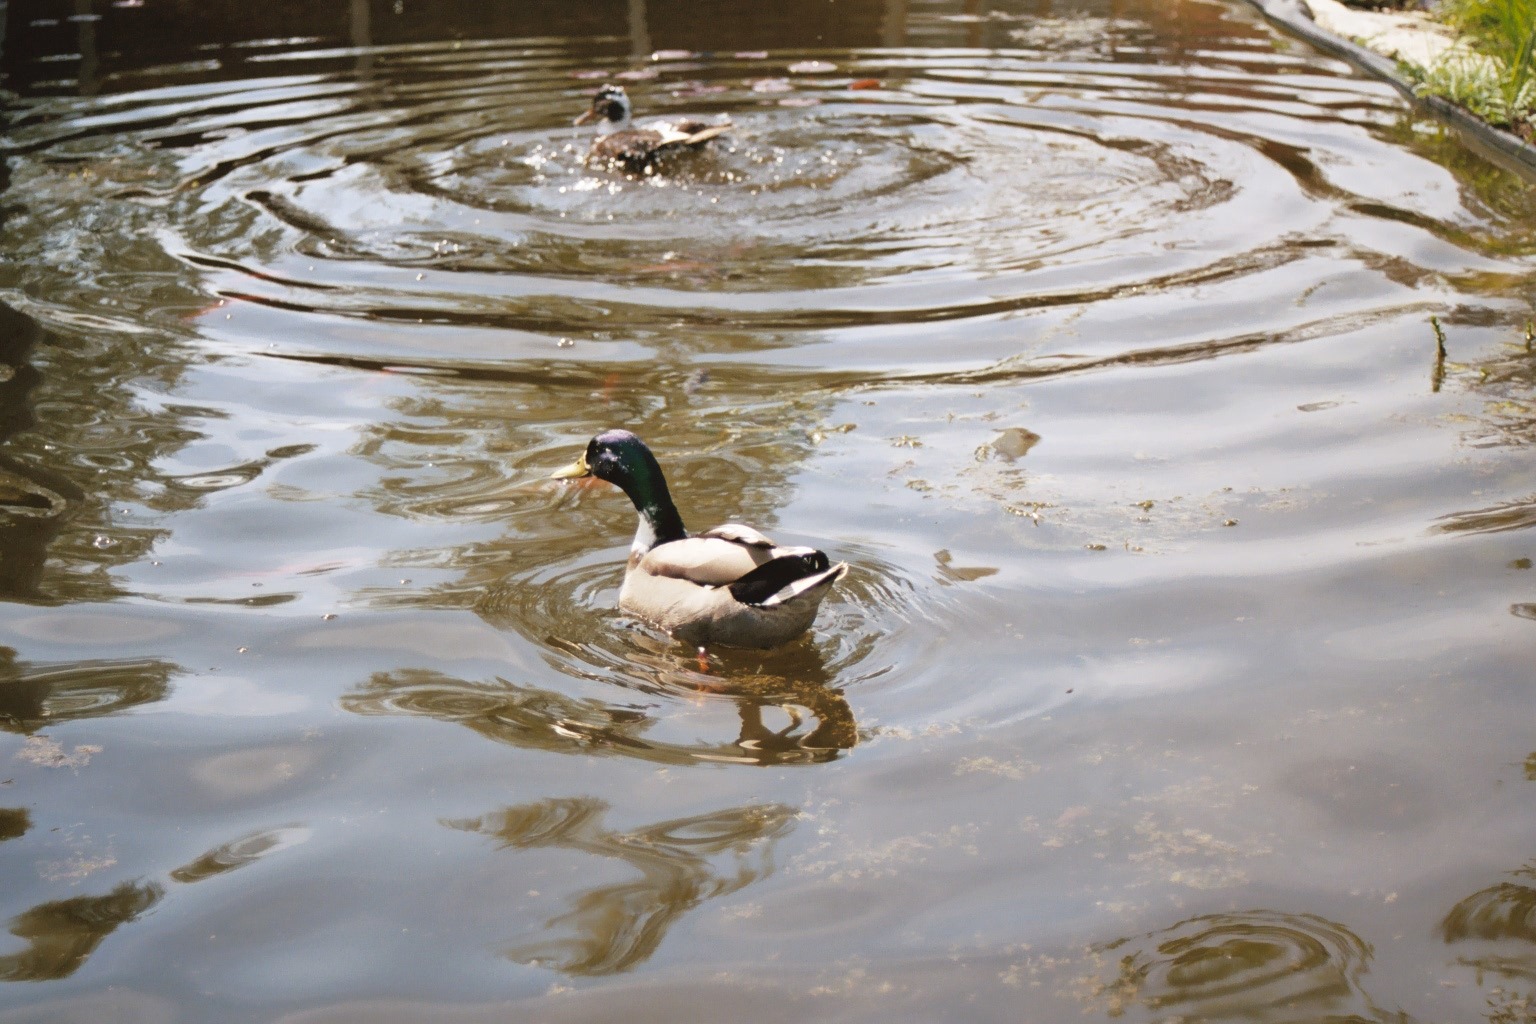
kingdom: Animalia
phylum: Chordata
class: Aves
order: Anseriformes
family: Anatidae
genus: Anas
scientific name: Anas platyrhynchos
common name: Mallard
